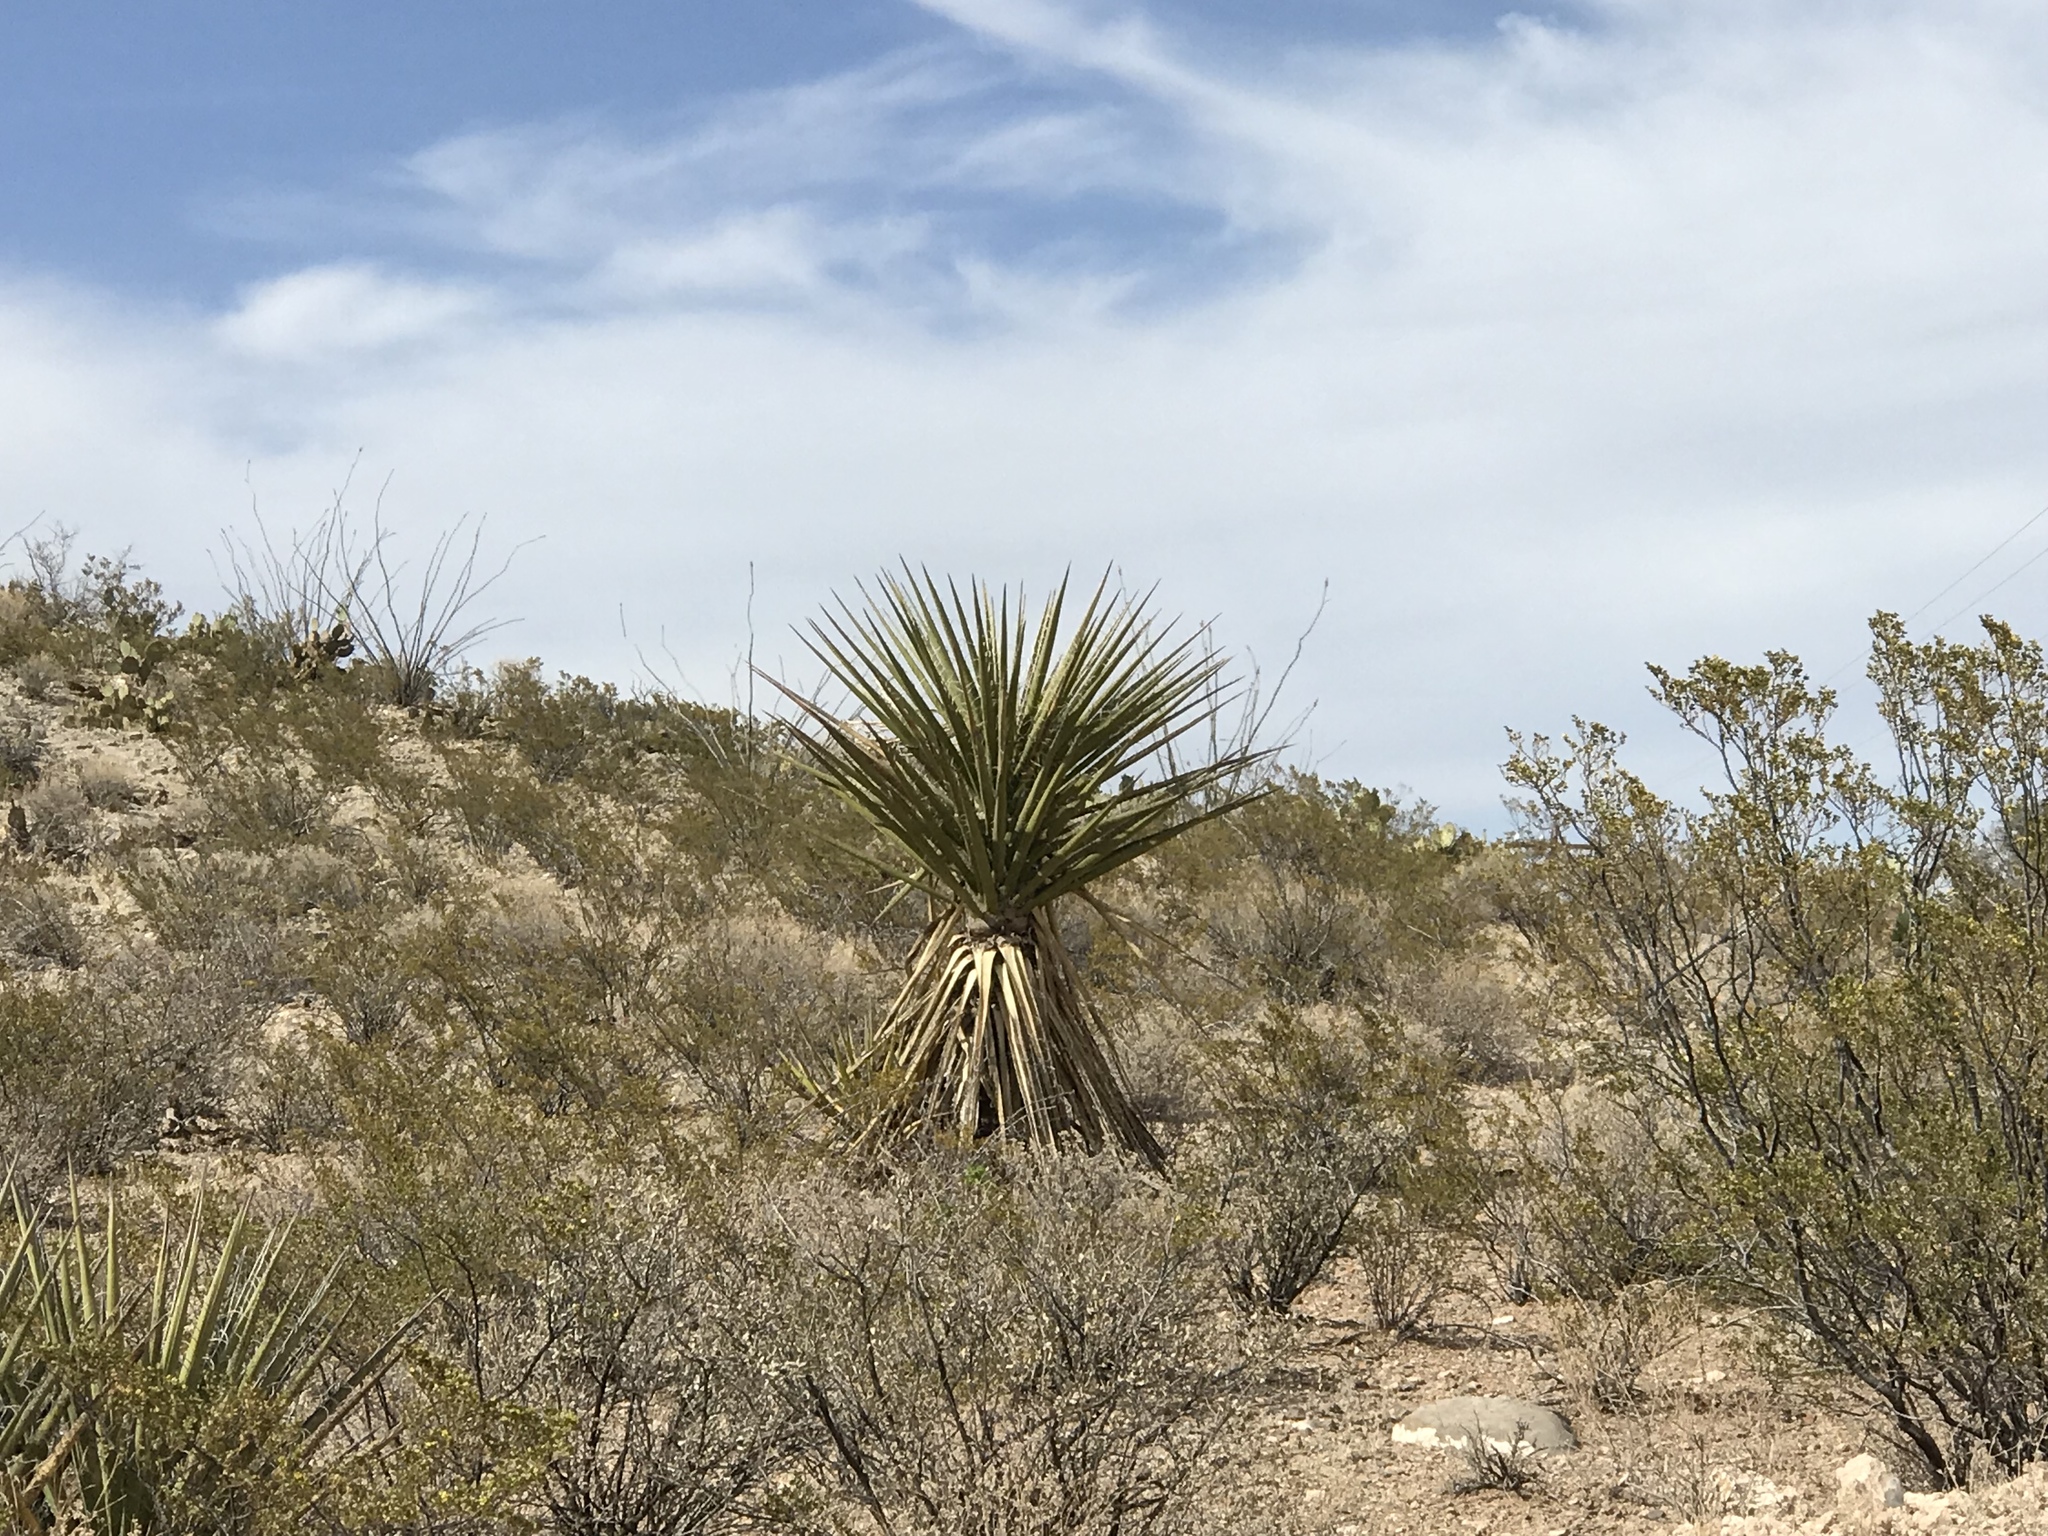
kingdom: Plantae
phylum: Tracheophyta
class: Liliopsida
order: Asparagales
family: Asparagaceae
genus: Yucca
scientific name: Yucca treculiana
